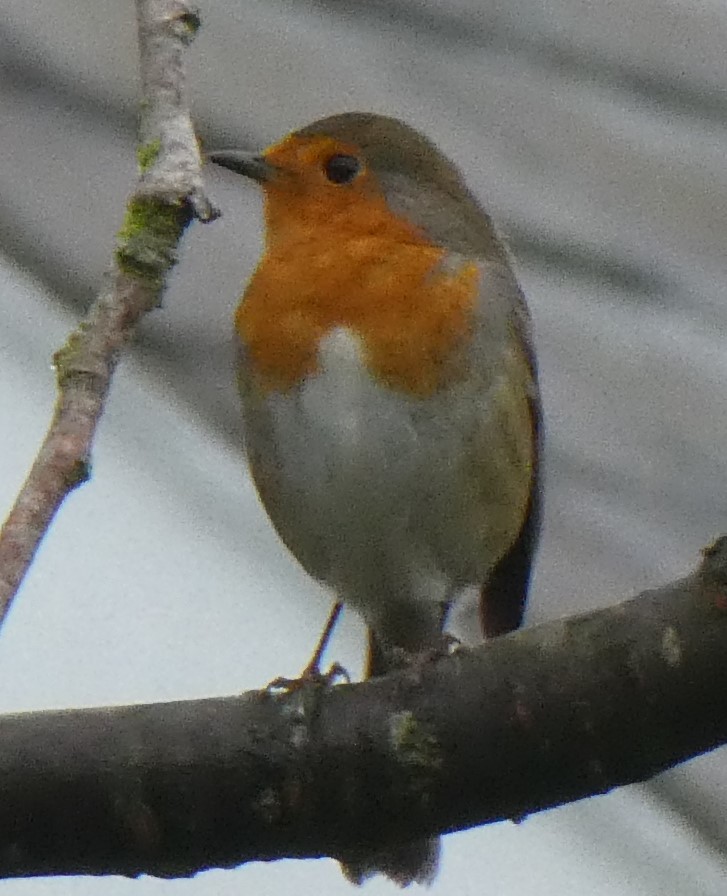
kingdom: Animalia
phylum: Chordata
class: Aves
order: Passeriformes
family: Muscicapidae
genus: Erithacus
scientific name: Erithacus rubecula
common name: European robin
